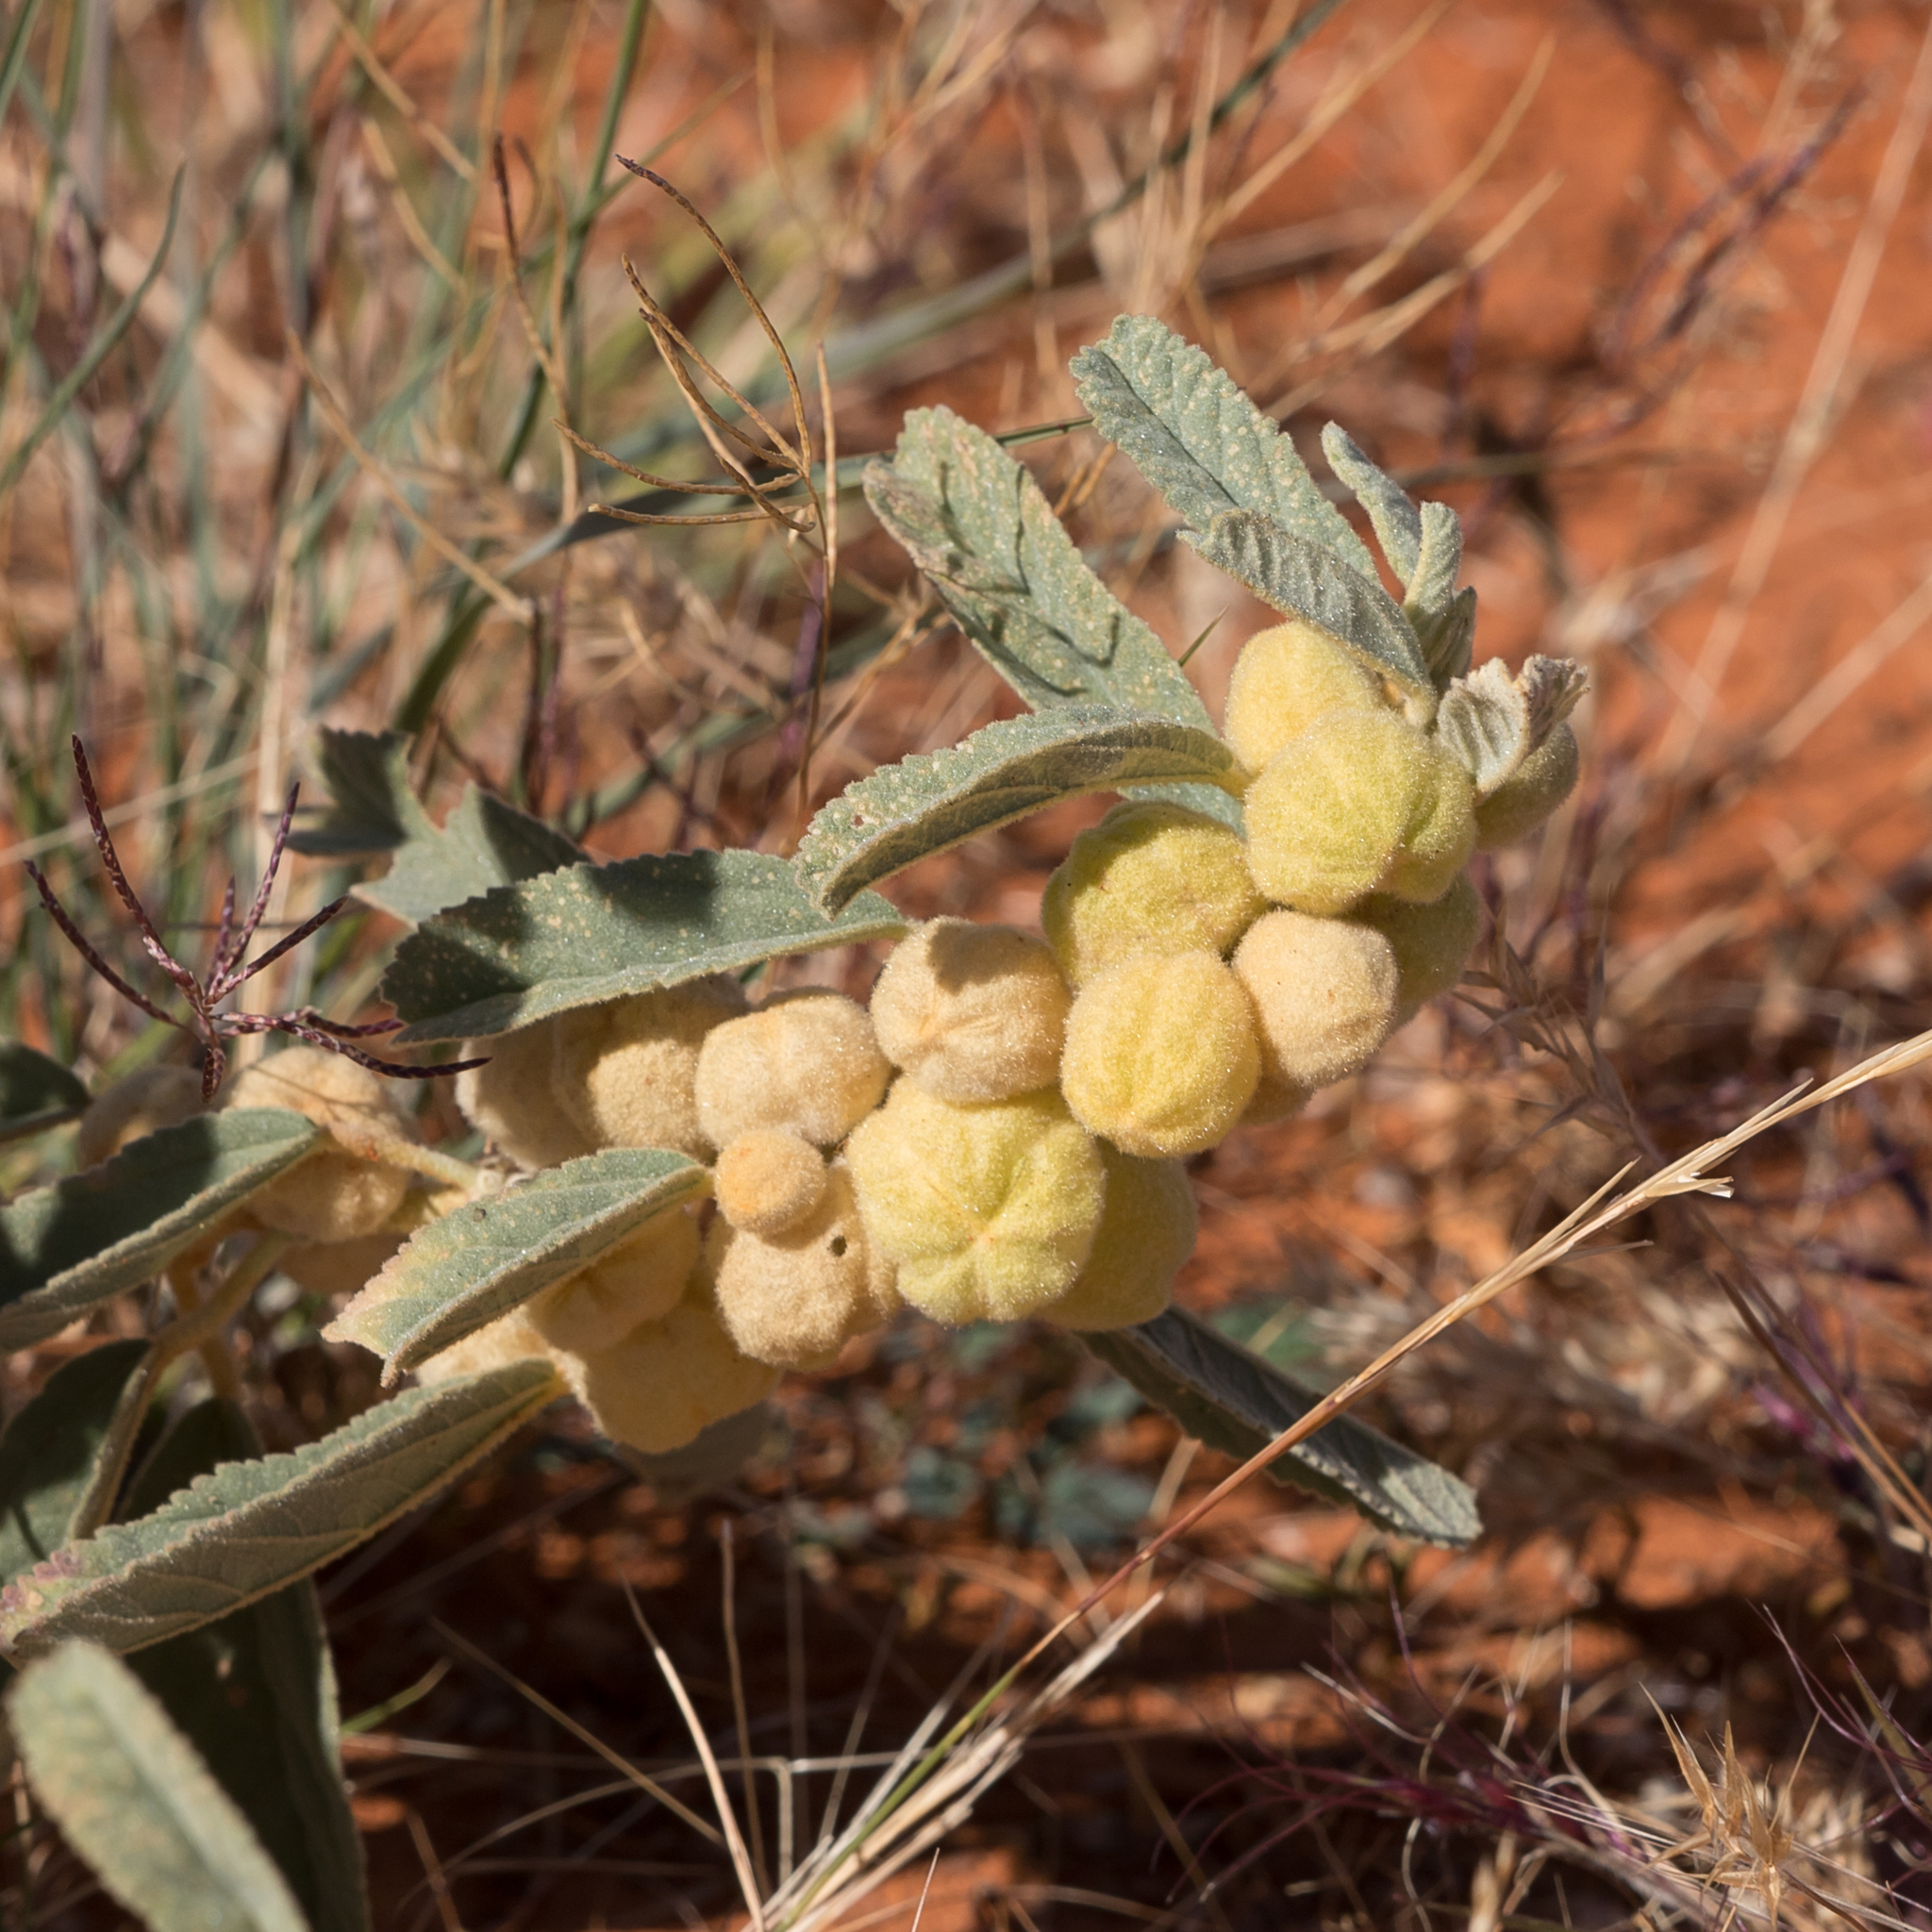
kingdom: Plantae
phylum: Tracheophyta
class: Magnoliopsida
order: Malvales
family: Malvaceae
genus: Sida
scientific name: Sida cleisocalyx
